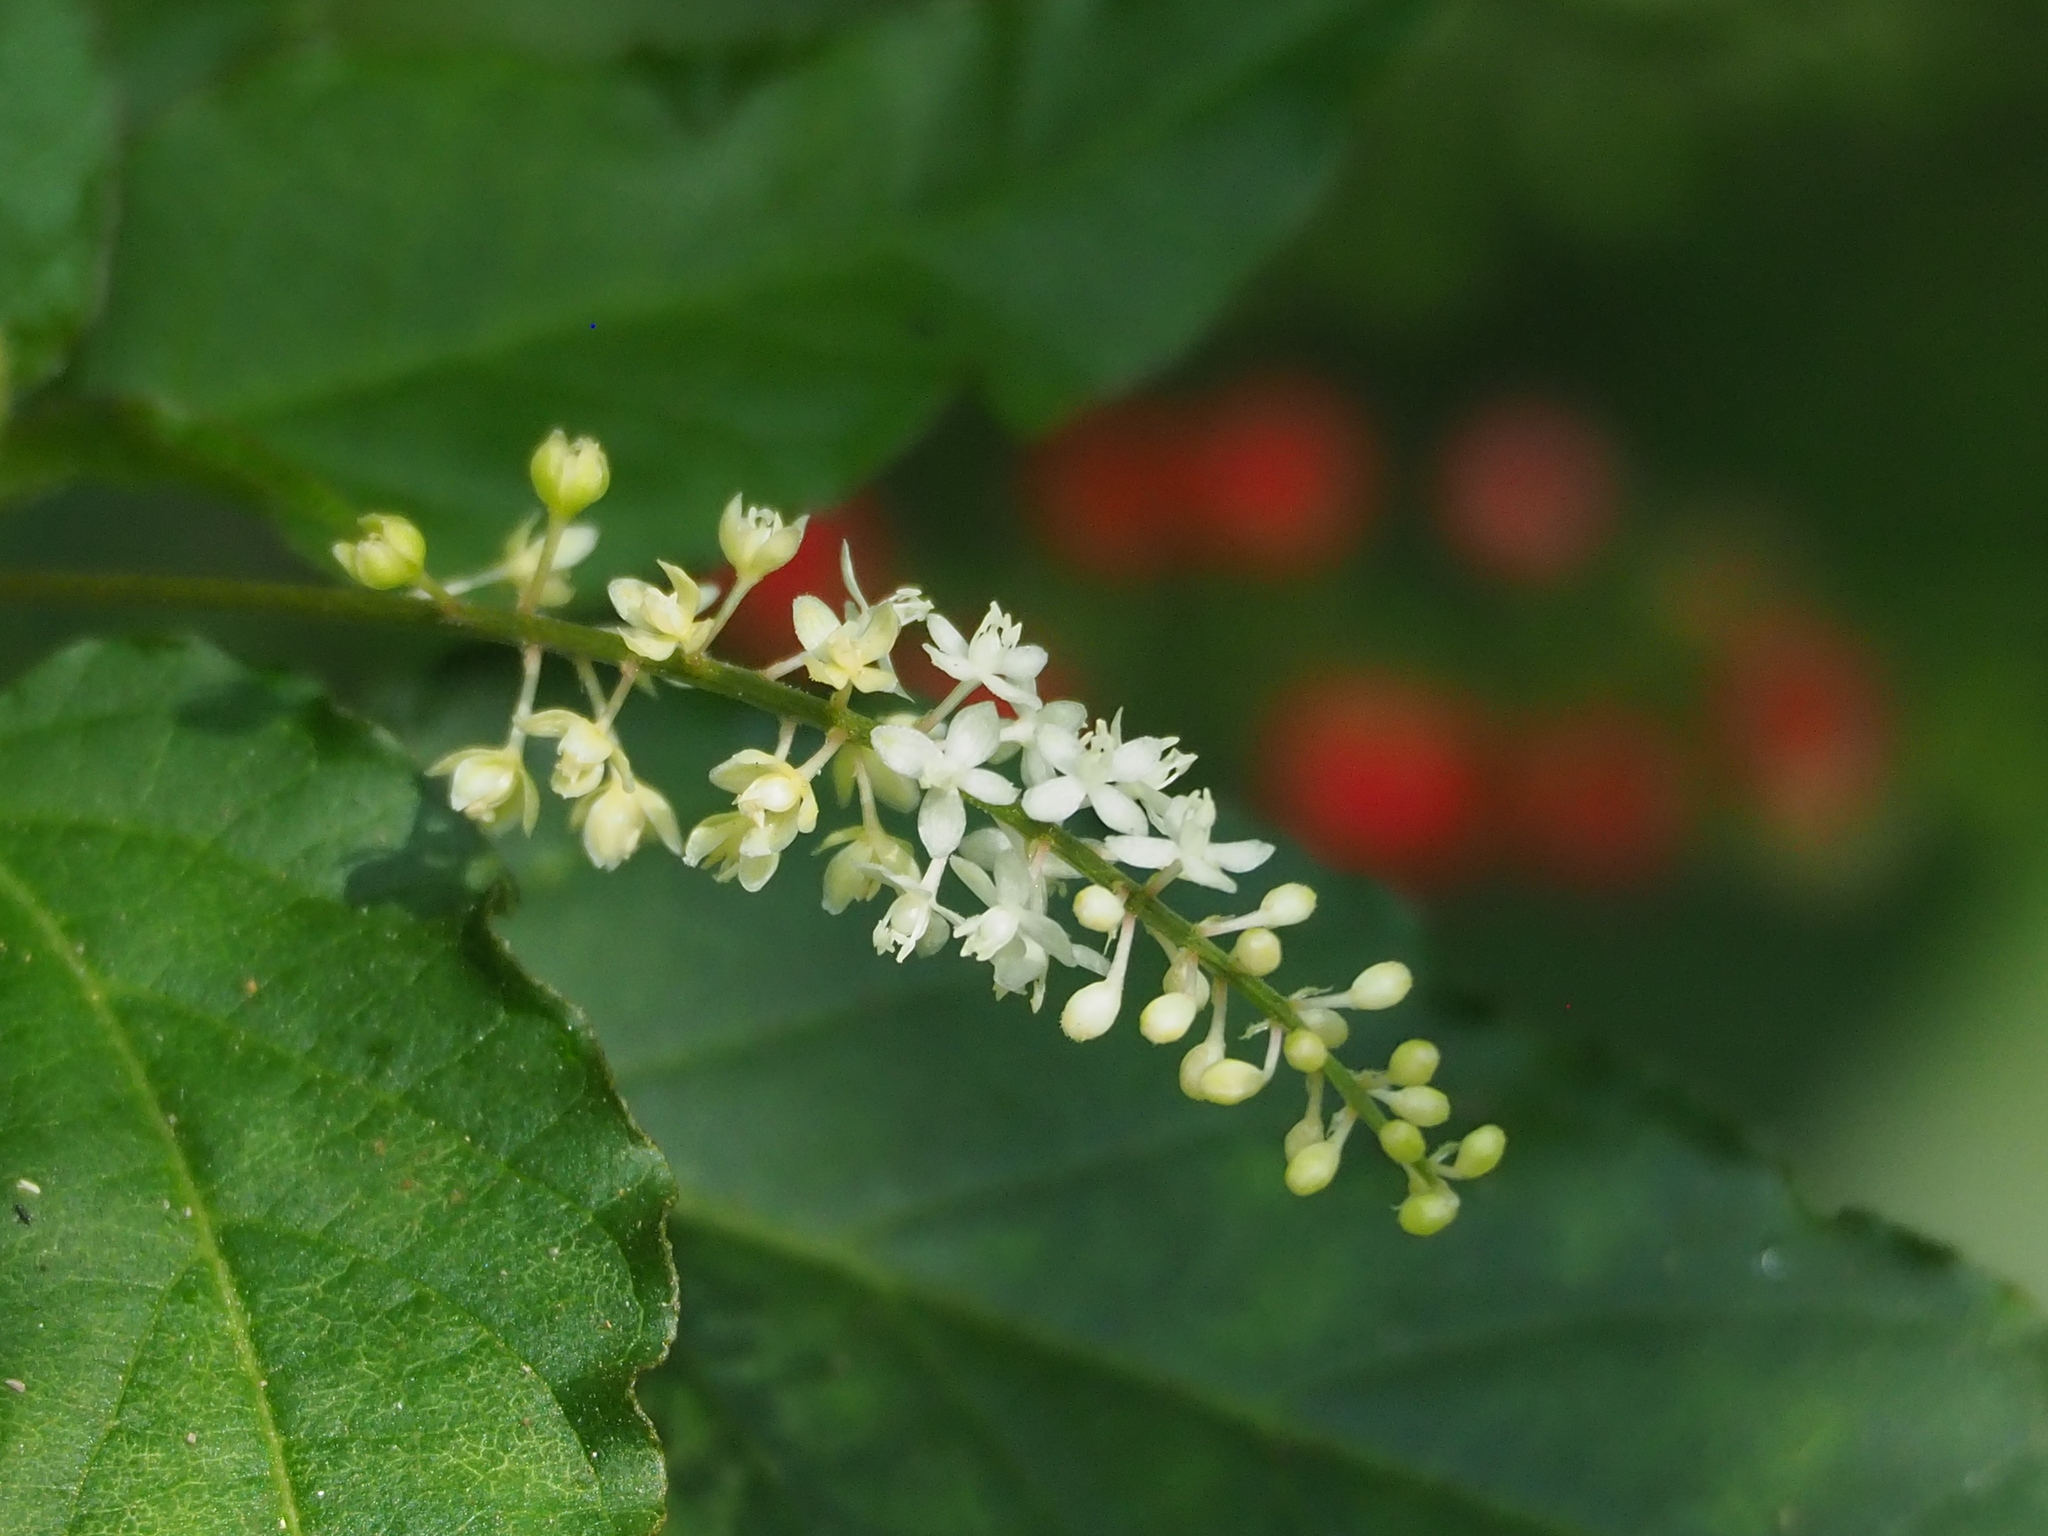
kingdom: Plantae
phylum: Tracheophyta
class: Magnoliopsida
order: Caryophyllales
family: Phytolaccaceae
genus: Rivina
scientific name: Rivina humilis
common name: Rougeplant
